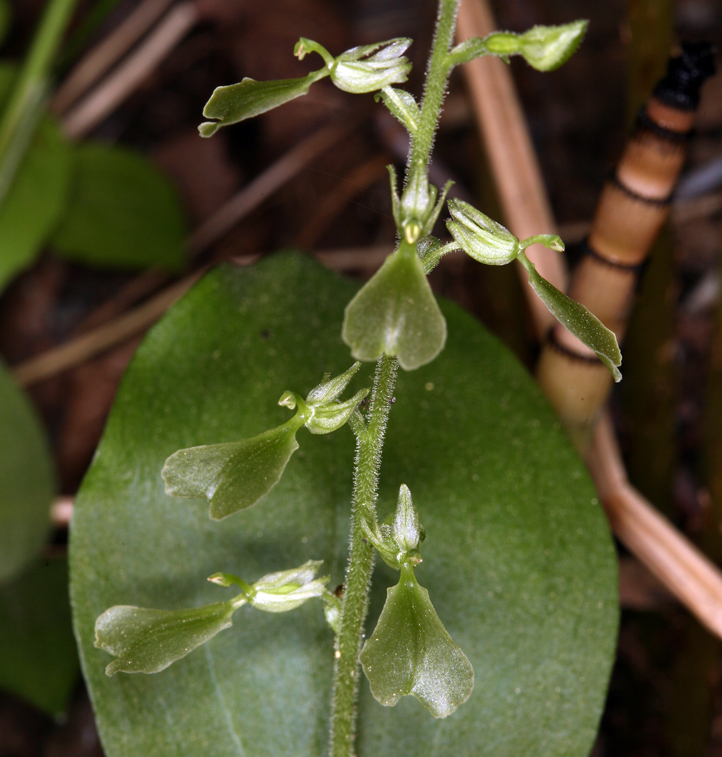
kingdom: Plantae
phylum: Tracheophyta
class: Liliopsida
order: Asparagales
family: Orchidaceae
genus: Neottia
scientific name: Neottia convallarioides
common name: Broadleaf twayblade
